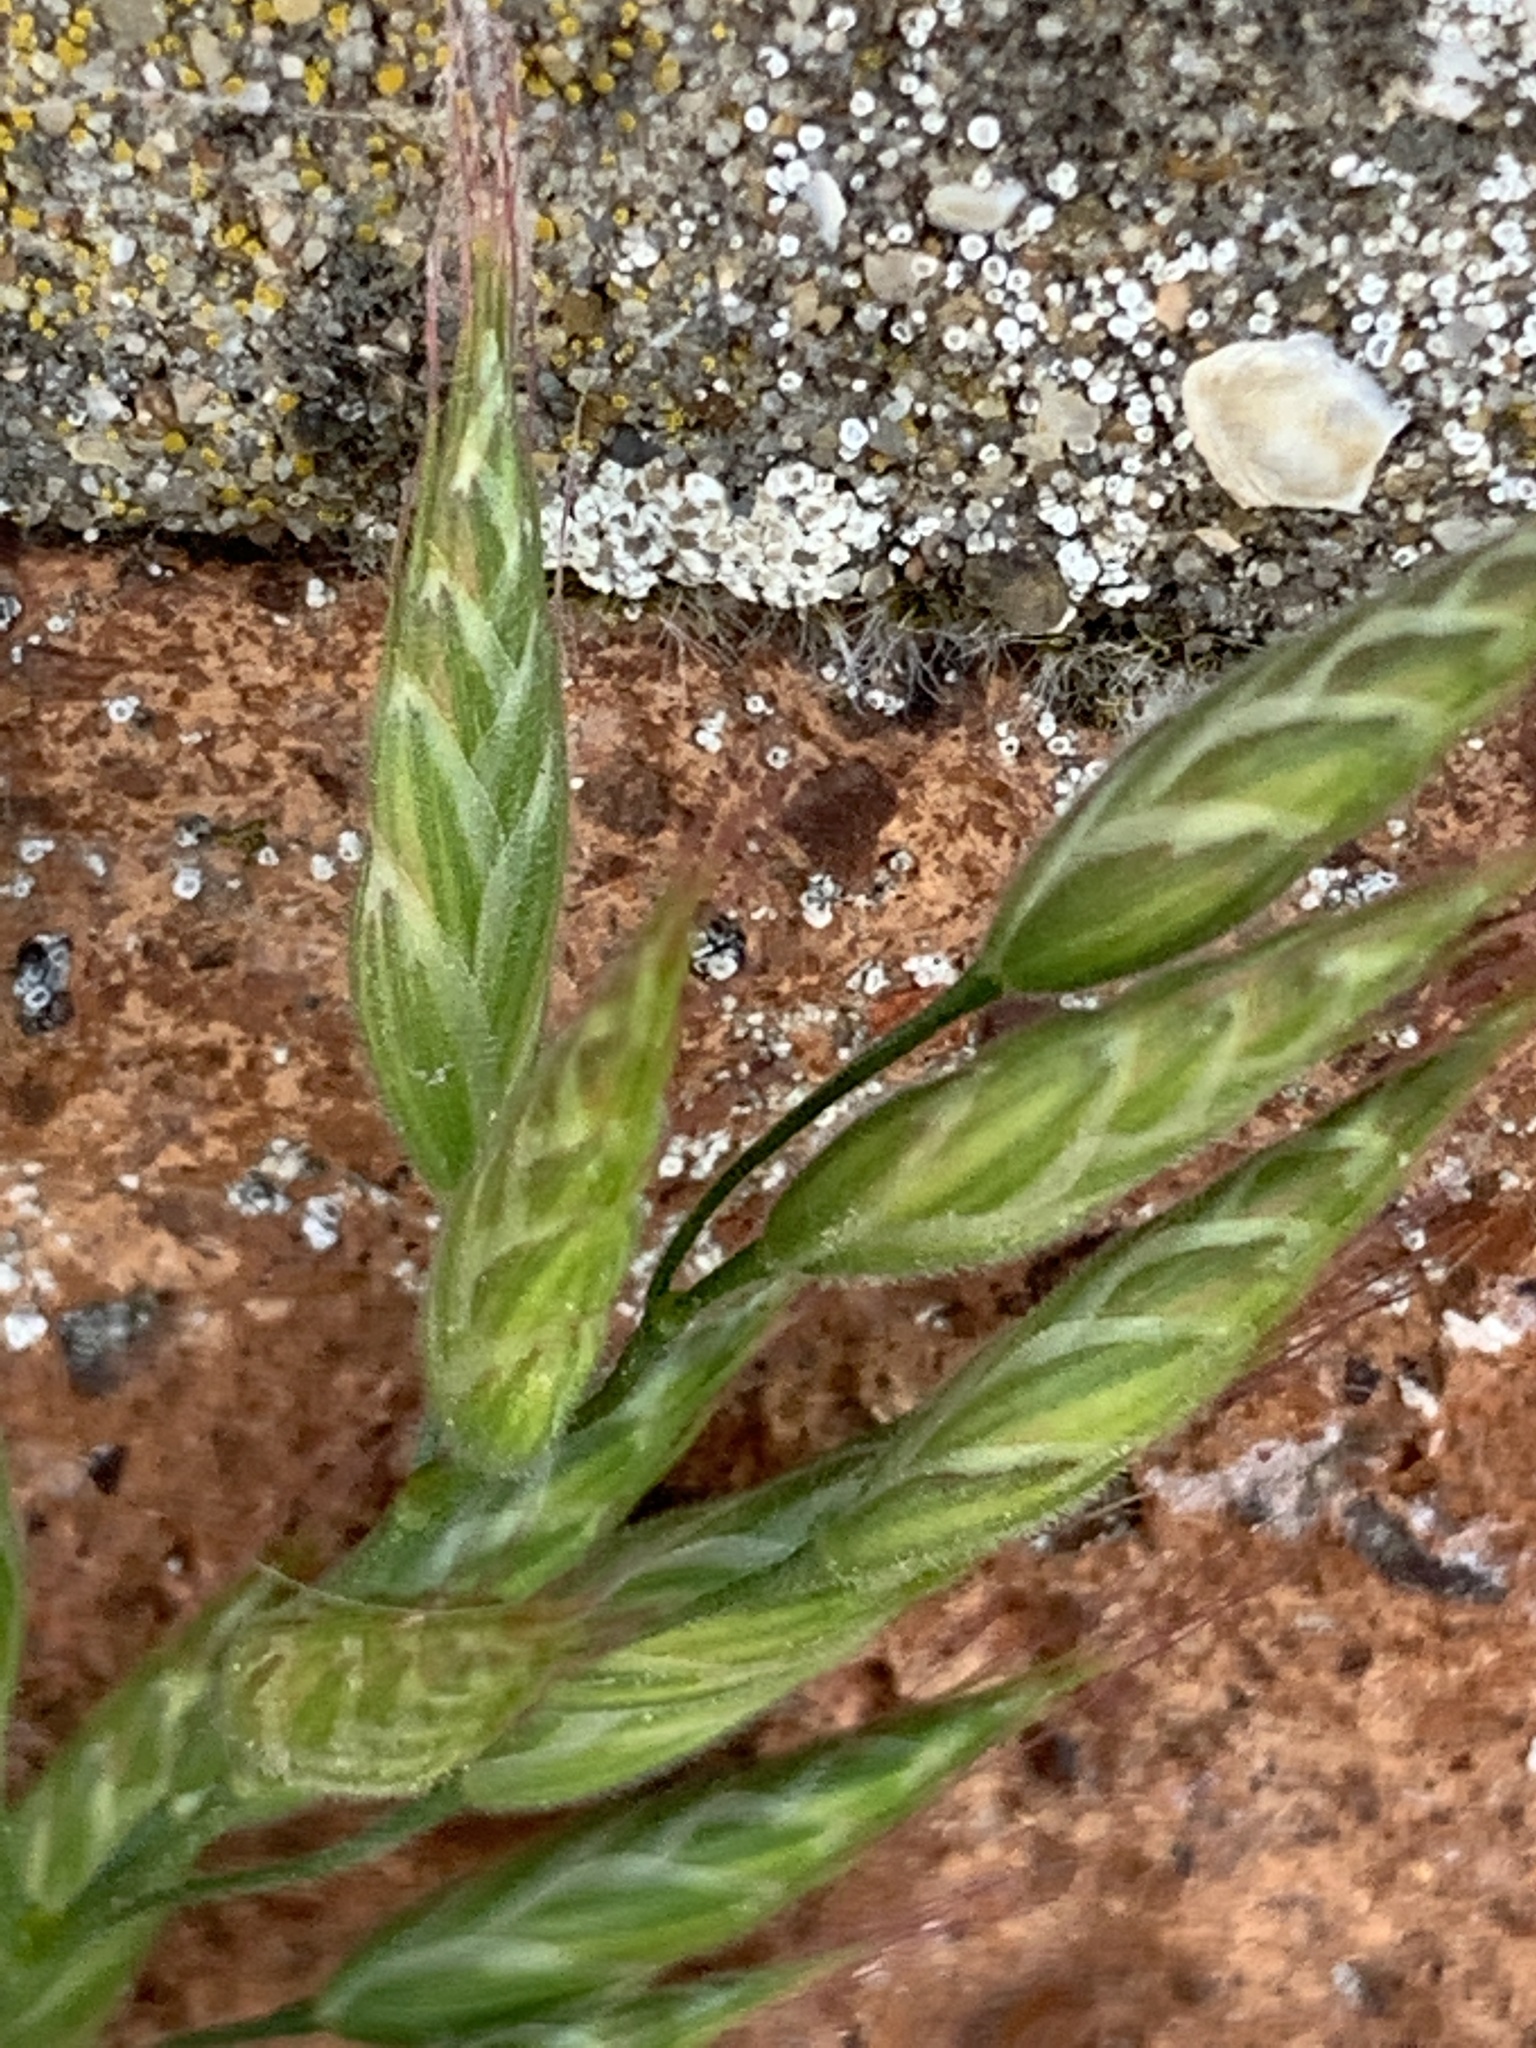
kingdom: Plantae
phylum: Tracheophyta
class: Liliopsida
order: Poales
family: Poaceae
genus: Bromus
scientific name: Bromus hordeaceus
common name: Soft brome
